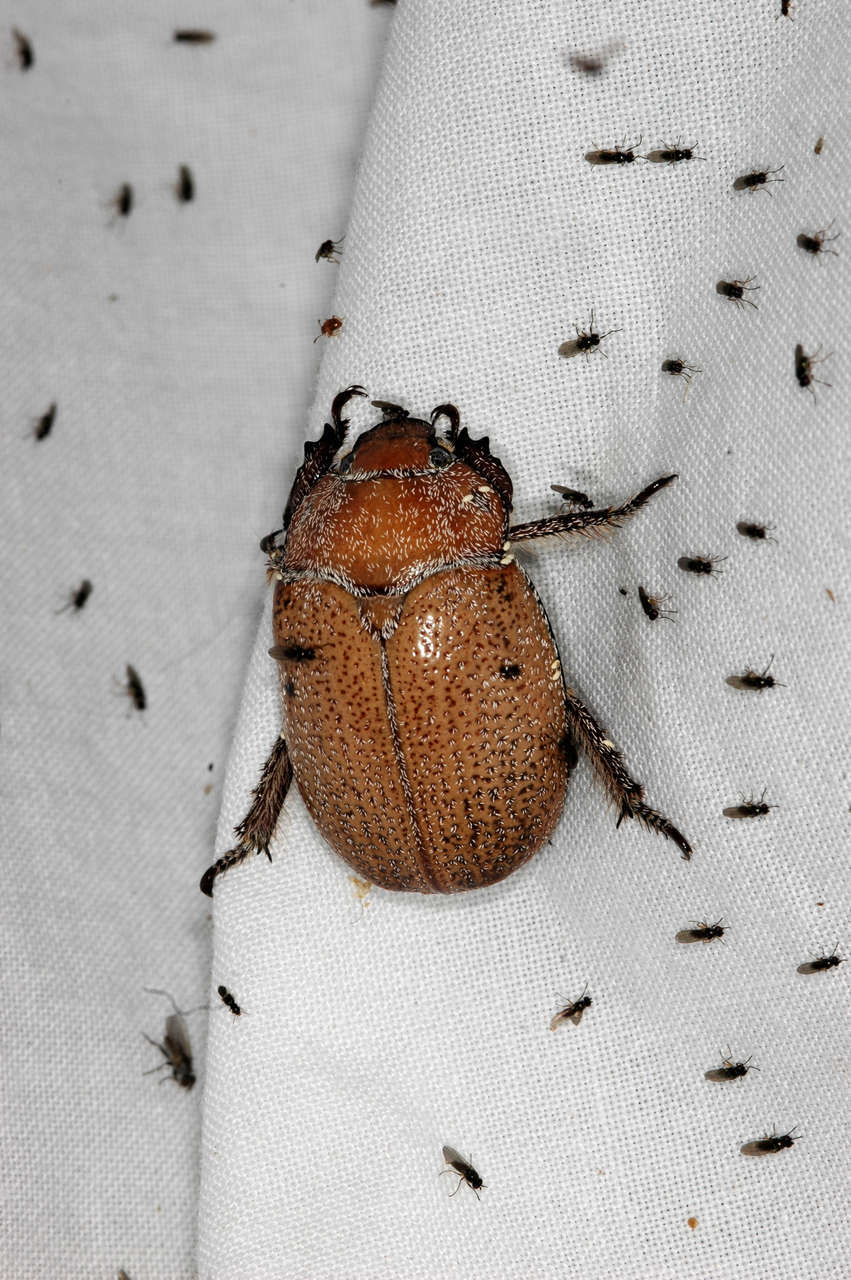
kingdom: Animalia
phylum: Arthropoda
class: Insecta
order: Coleoptera
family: Scarabaeidae
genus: Anoplognathus
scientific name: Anoplognathus velutinus
